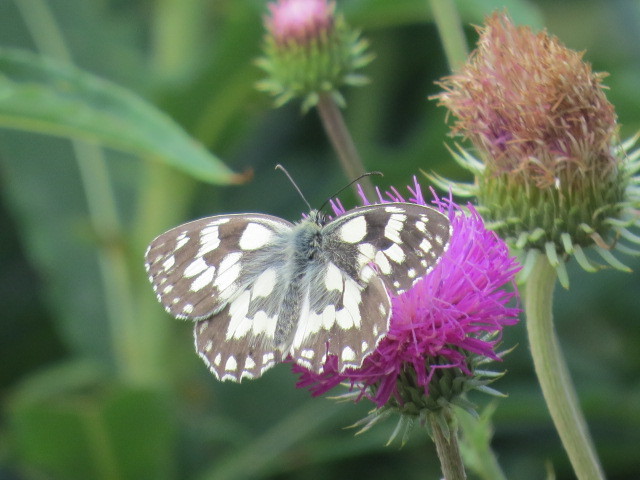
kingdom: Animalia
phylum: Arthropoda
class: Insecta
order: Lepidoptera
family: Nymphalidae
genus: Melanargia
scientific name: Melanargia galathea
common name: Marbled white
